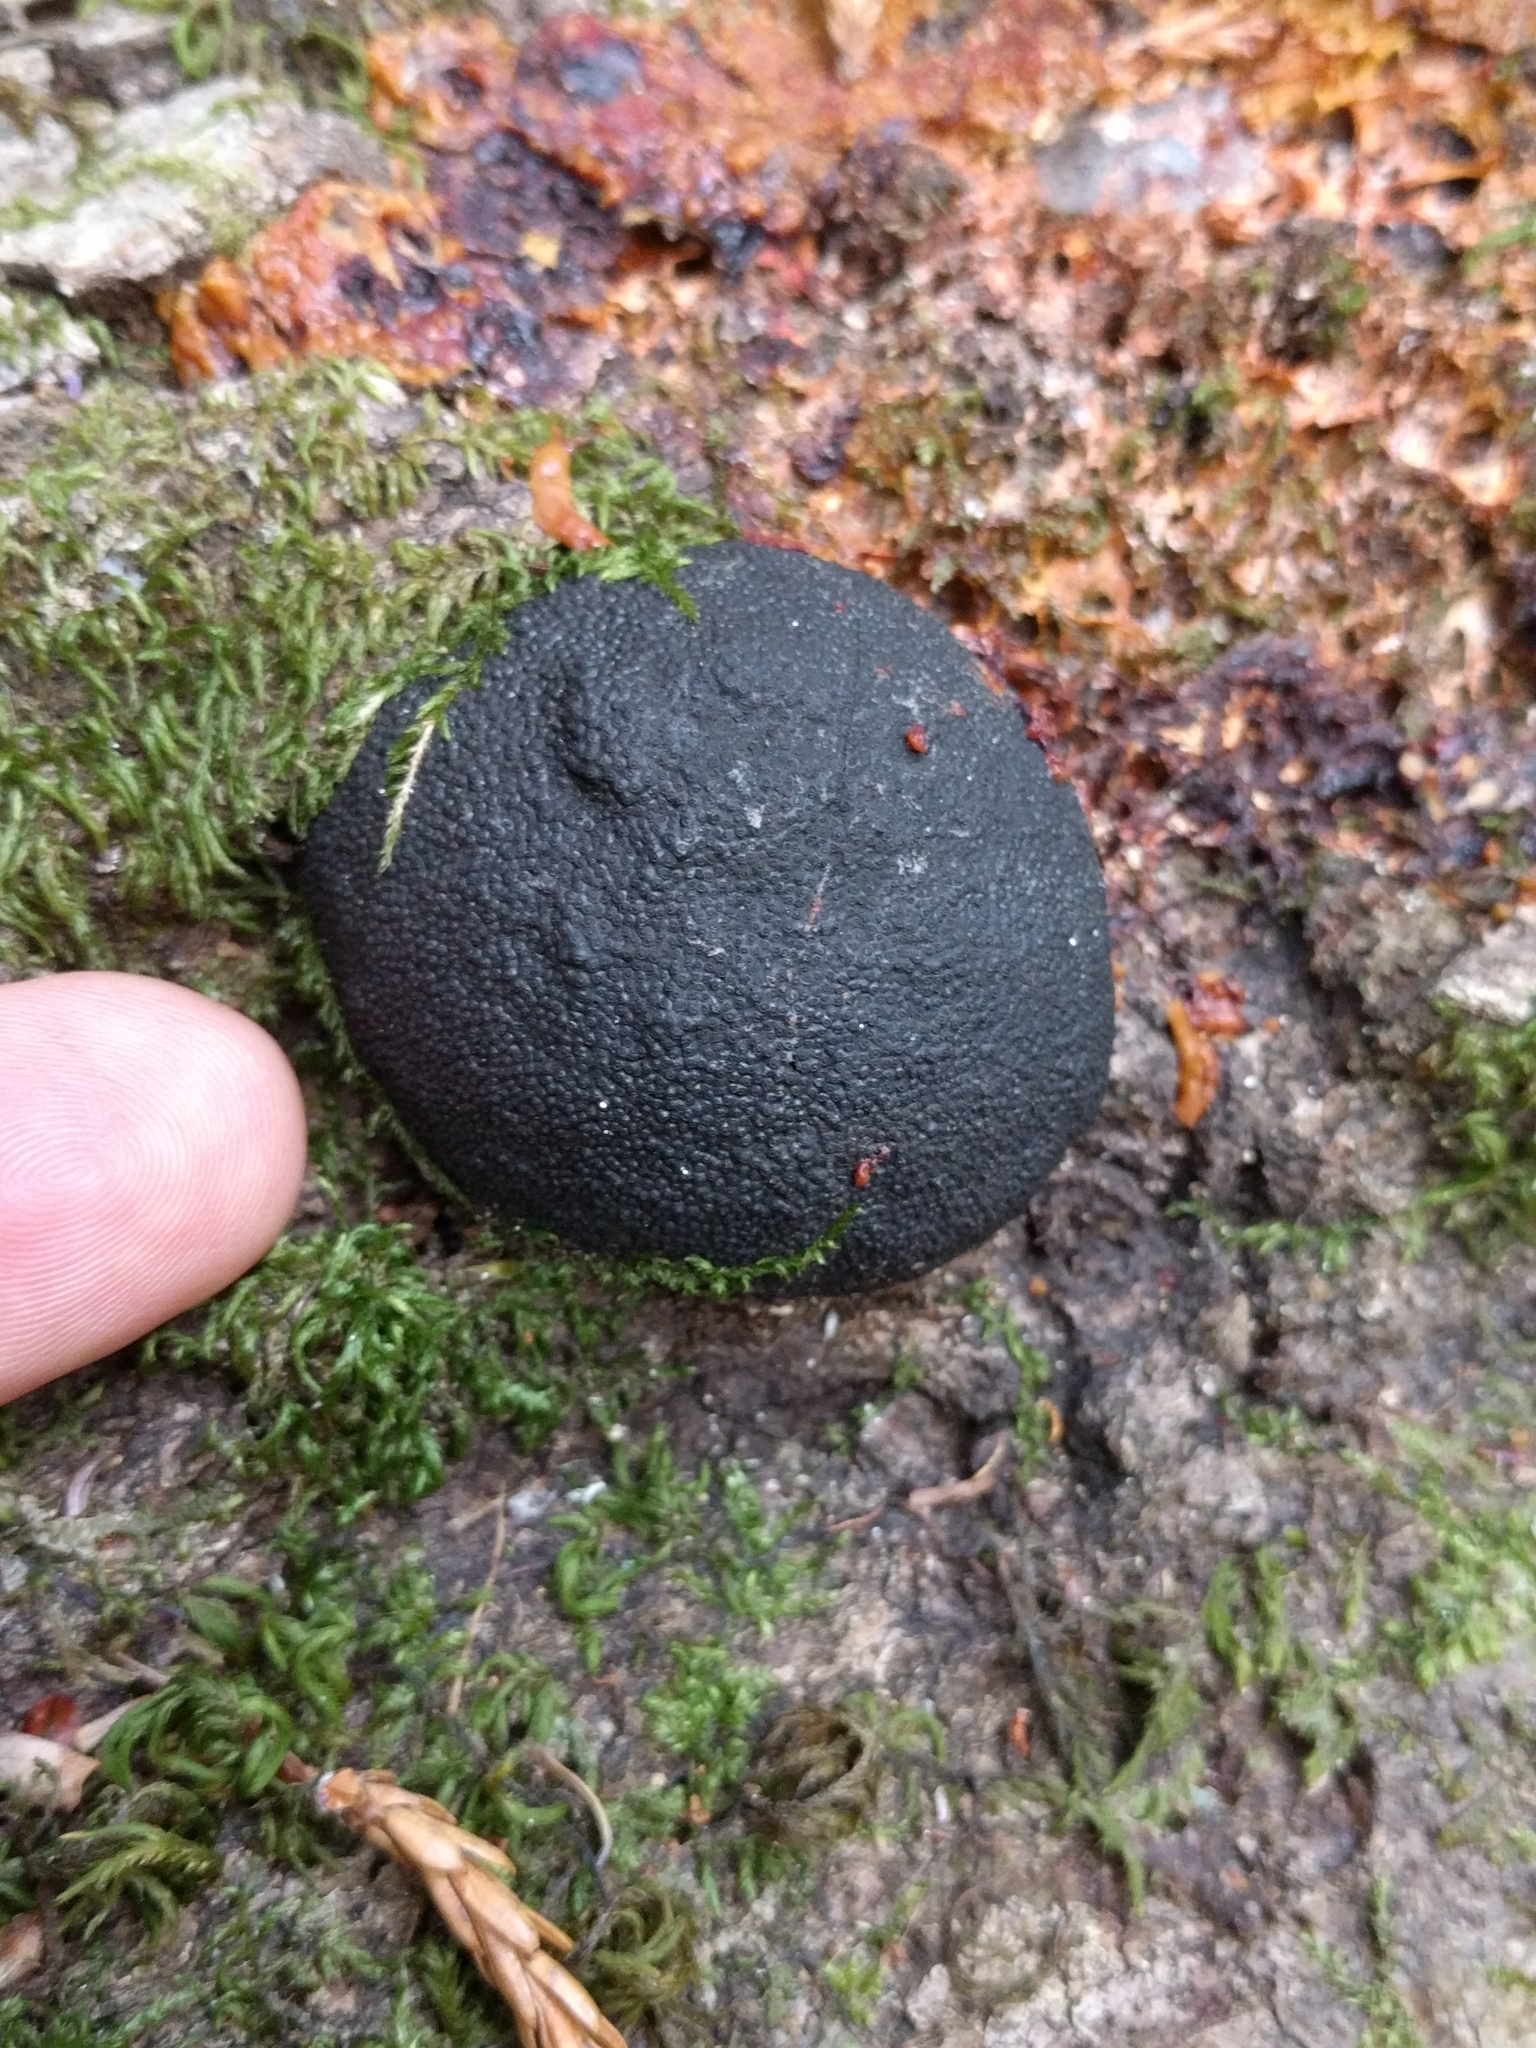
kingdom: Fungi
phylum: Ascomycota
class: Sordariomycetes
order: Xylariales
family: Hypoxylaceae
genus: Annulohypoxylon
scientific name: Annulohypoxylon thouarsianum
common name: Cramp balls
